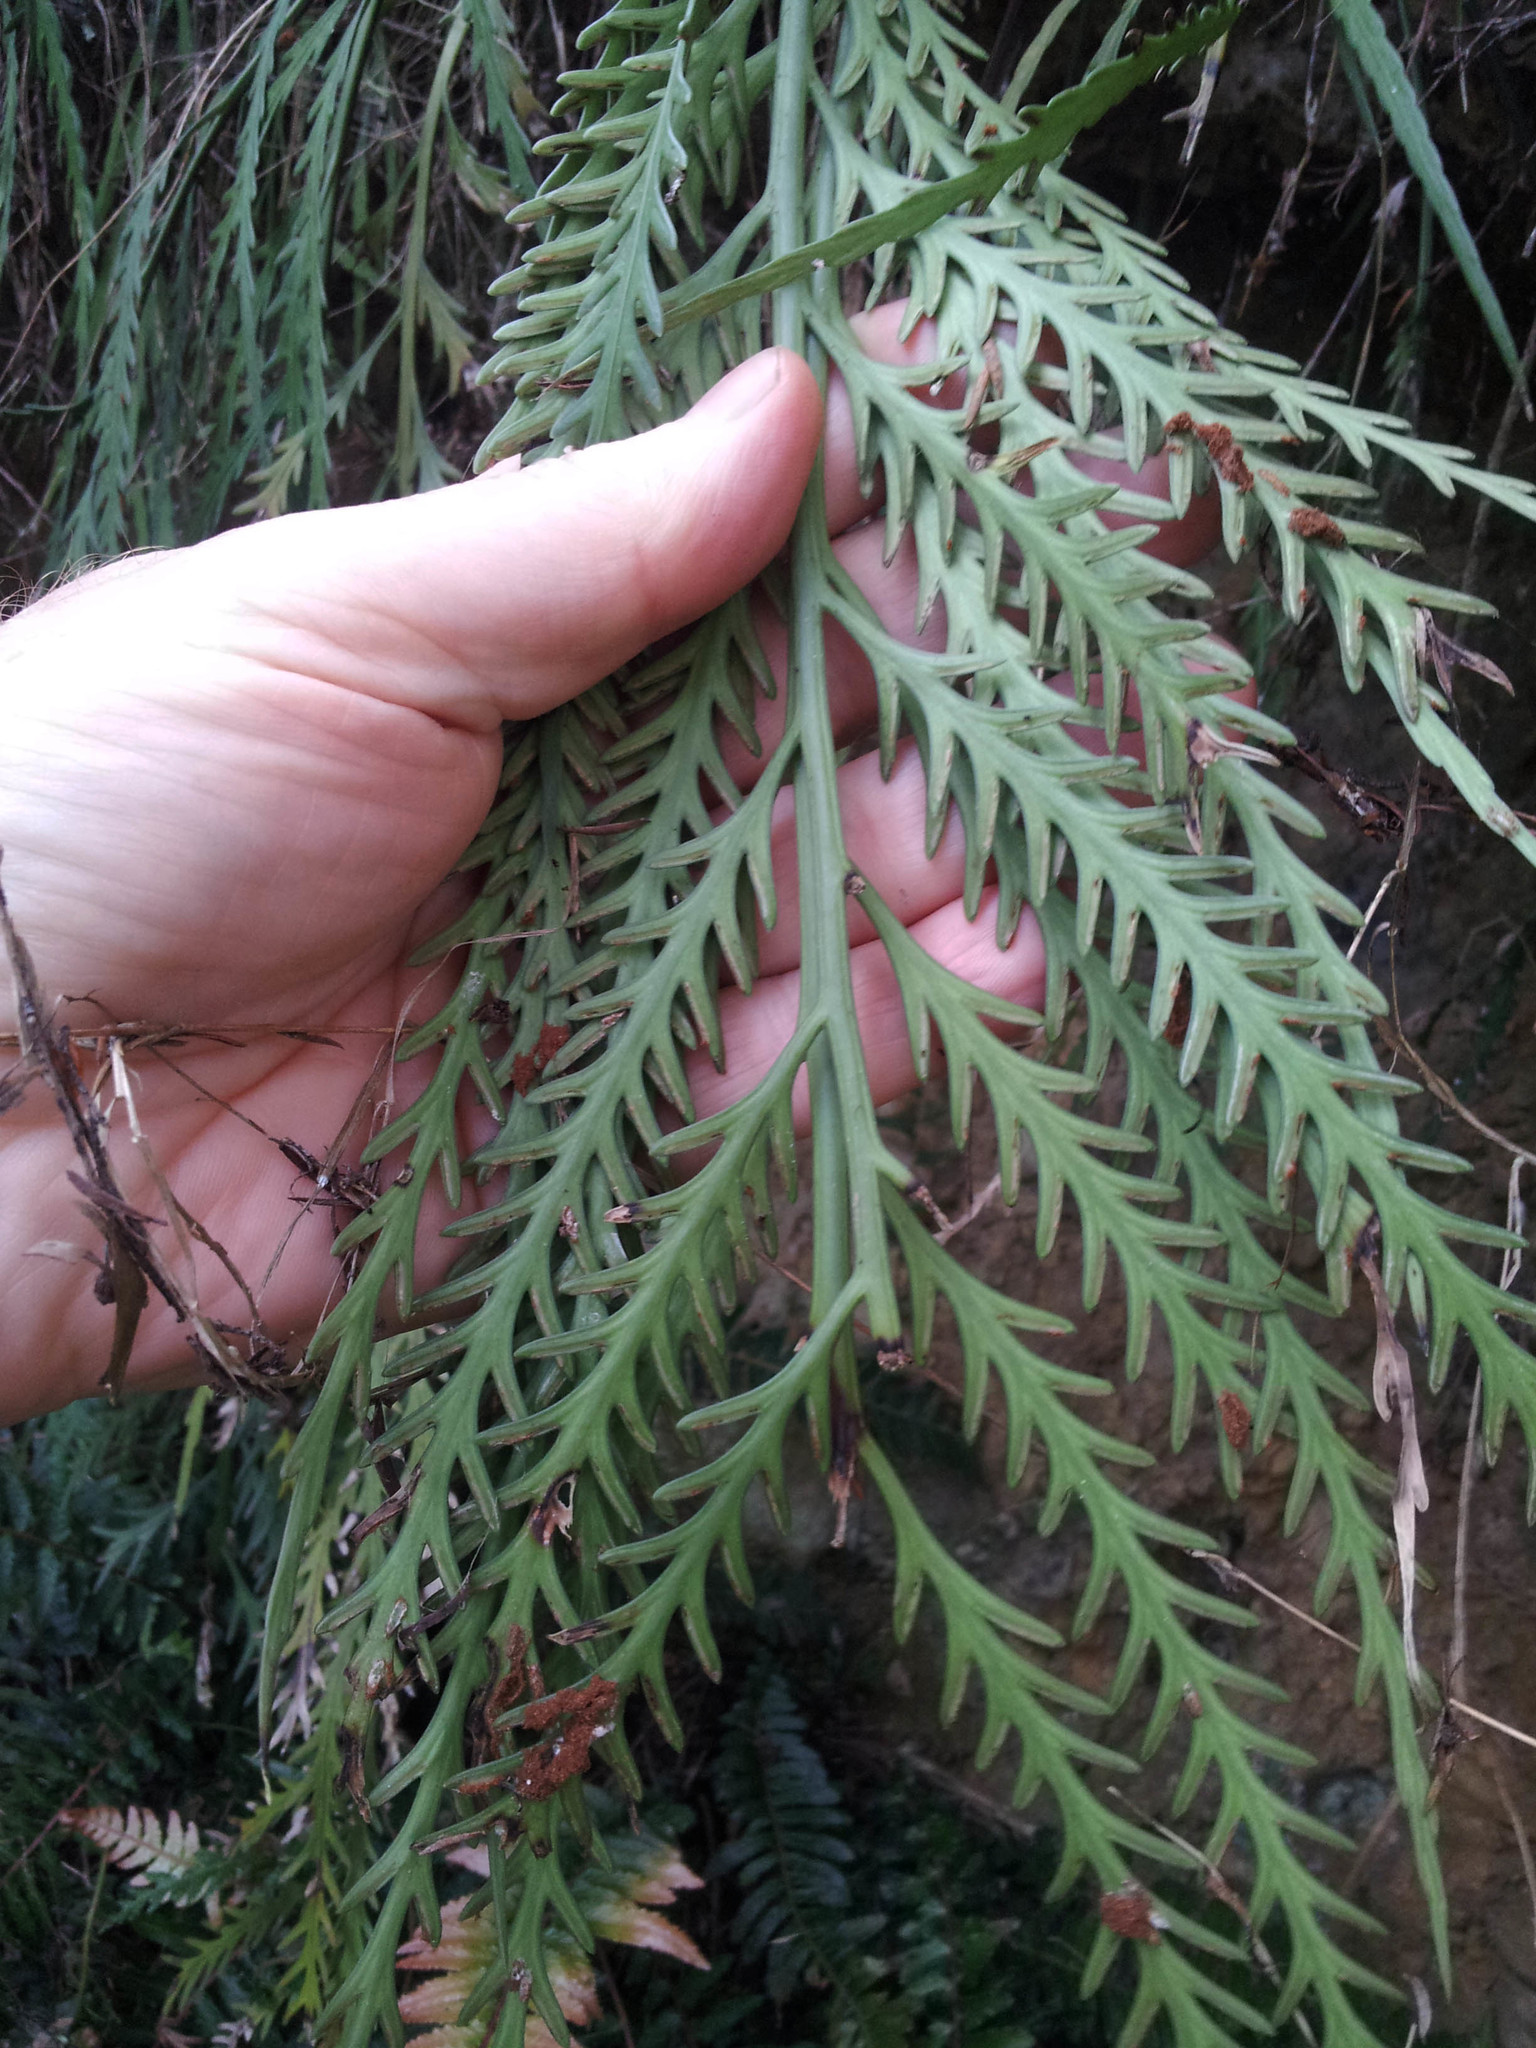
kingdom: Plantae
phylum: Tracheophyta
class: Polypodiopsida
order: Polypodiales
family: Aspleniaceae
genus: Asplenium
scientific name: Asplenium flaccidum
